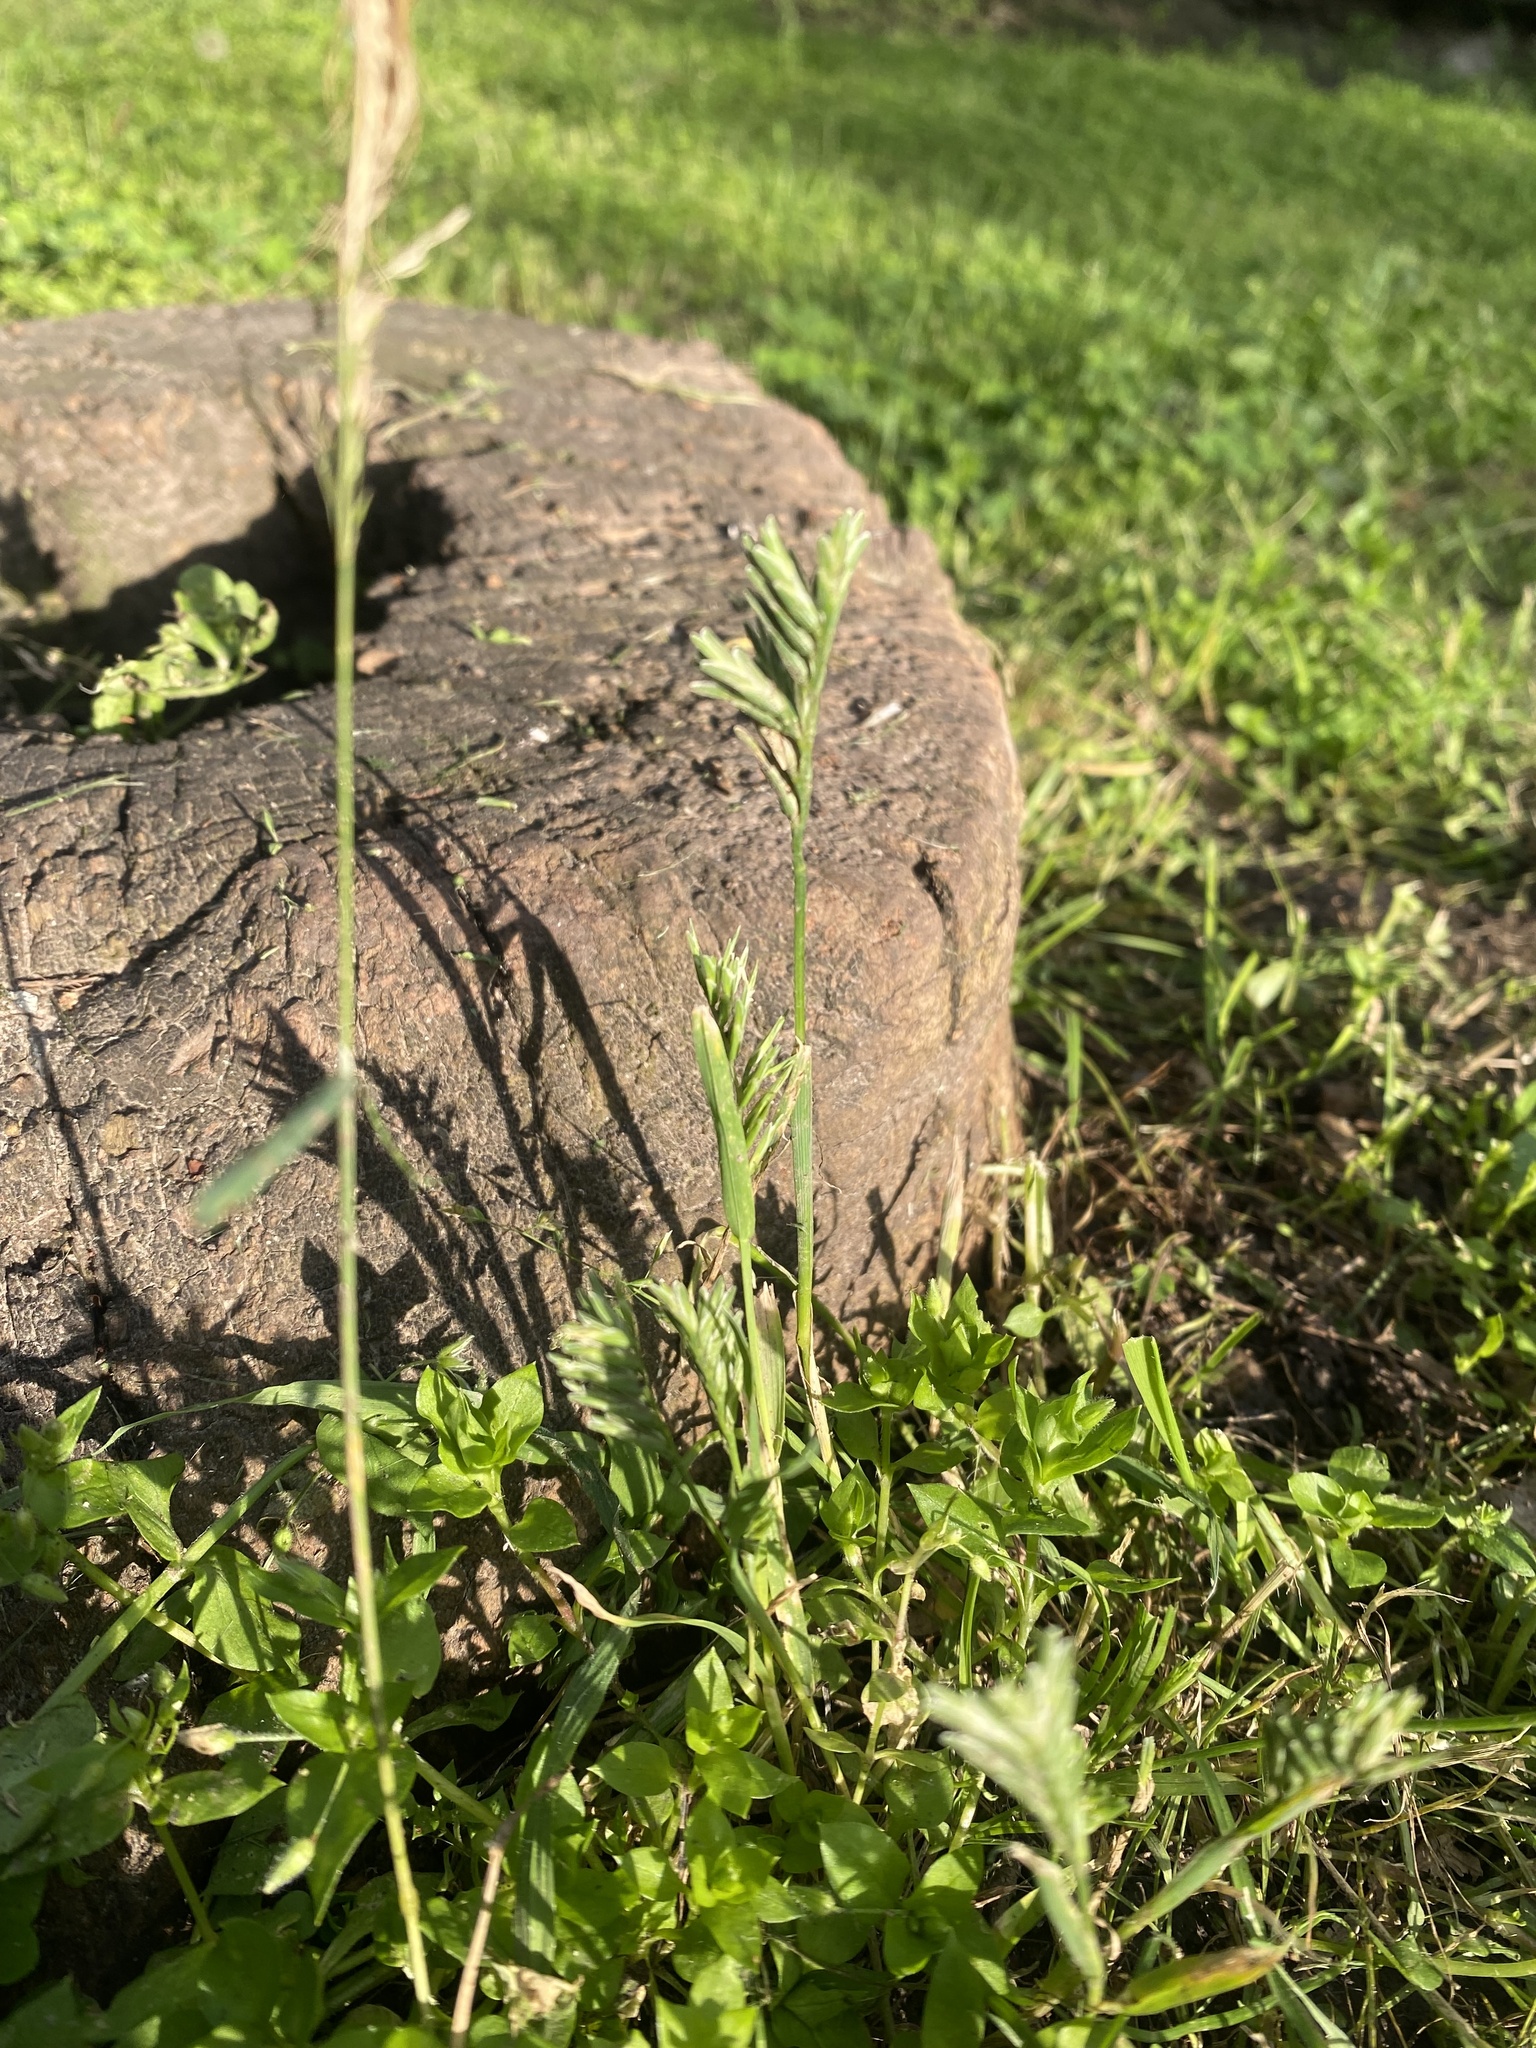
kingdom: Plantae
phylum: Tracheophyta
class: Liliopsida
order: Poales
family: Poaceae
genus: Sclerochloa
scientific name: Sclerochloa dura
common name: Common hardgrass
